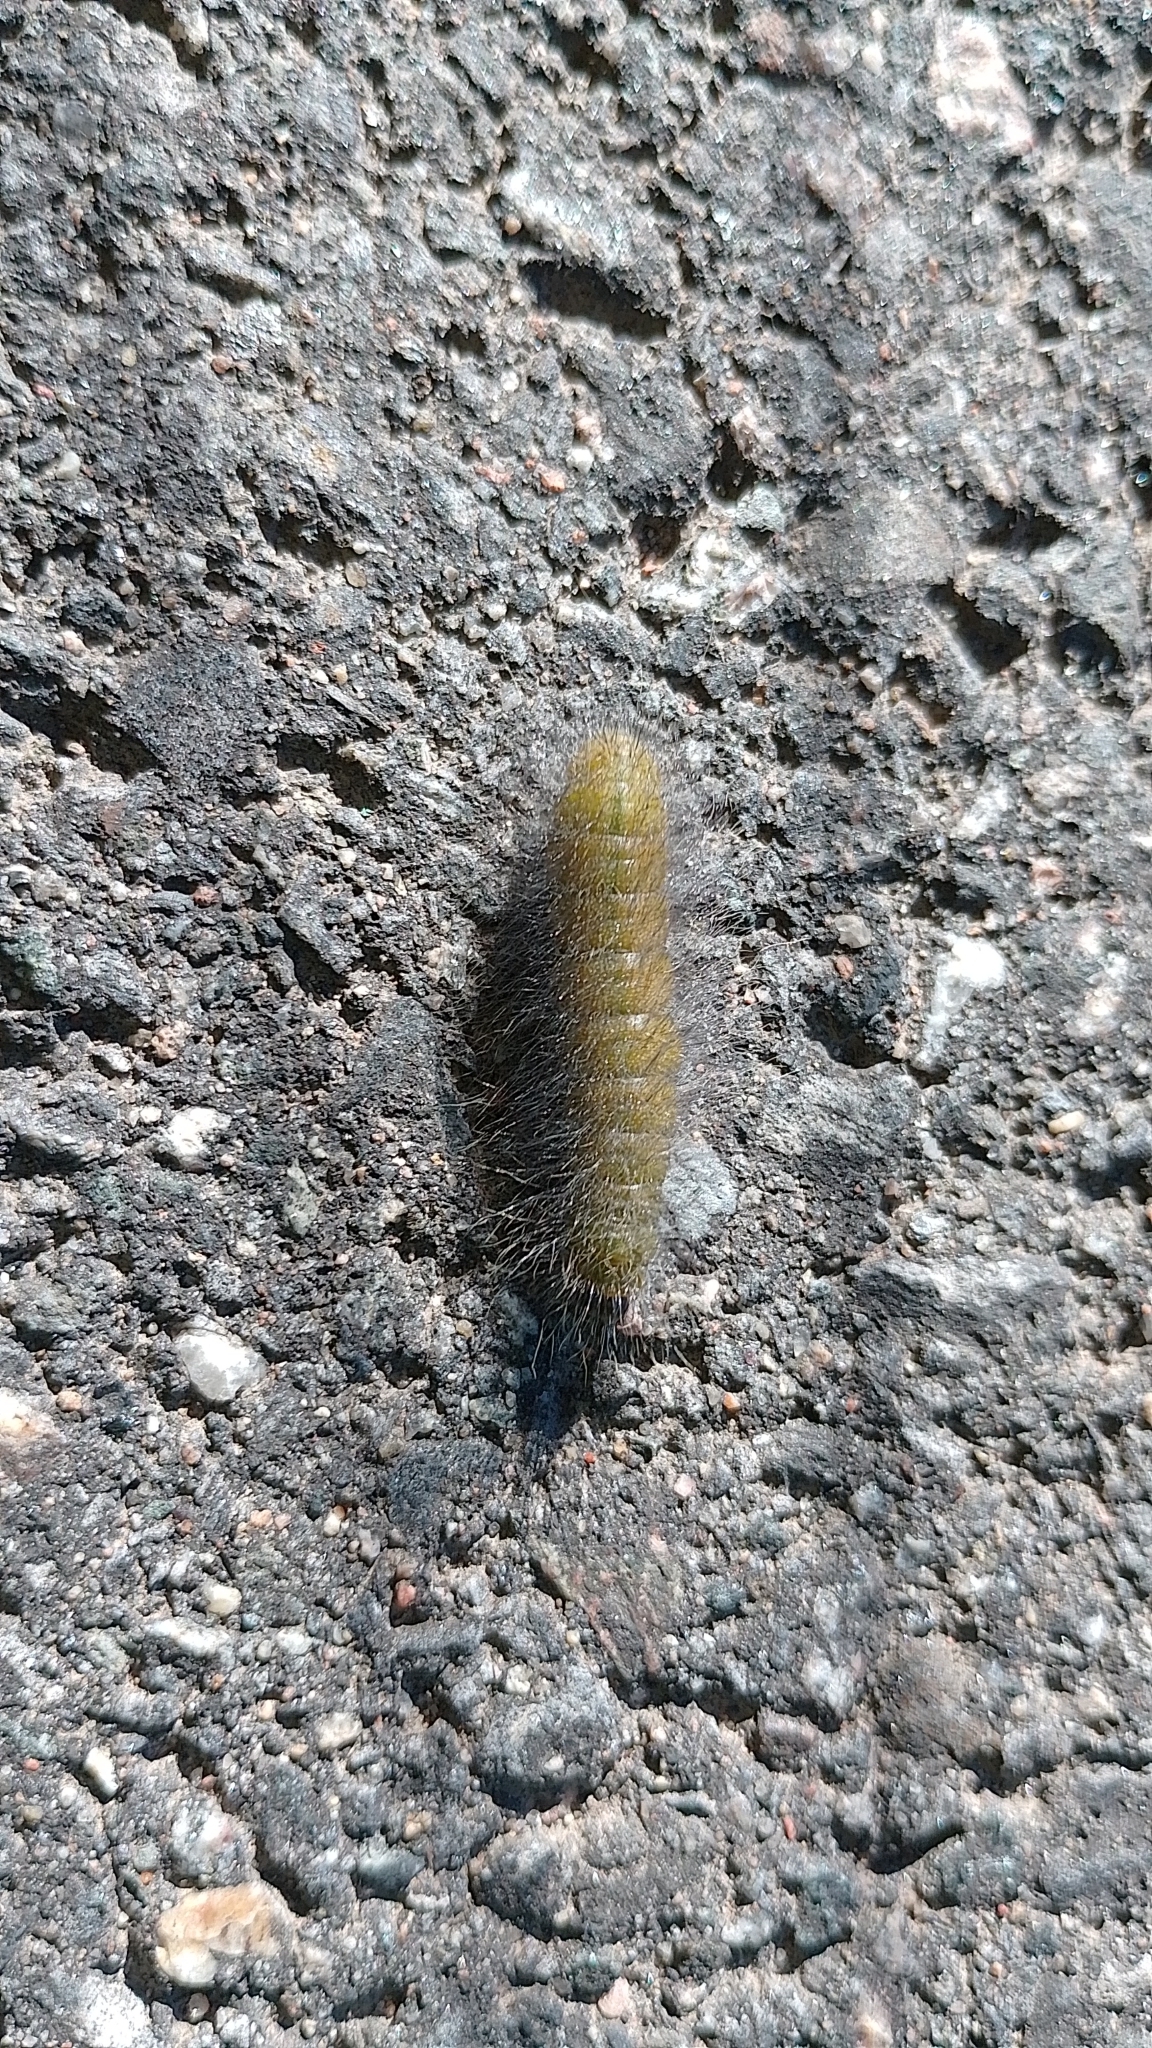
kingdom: Animalia
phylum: Arthropoda
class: Insecta
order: Lepidoptera
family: Noctuidae
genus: Acronicta
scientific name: Acronicta leporina
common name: Miller
